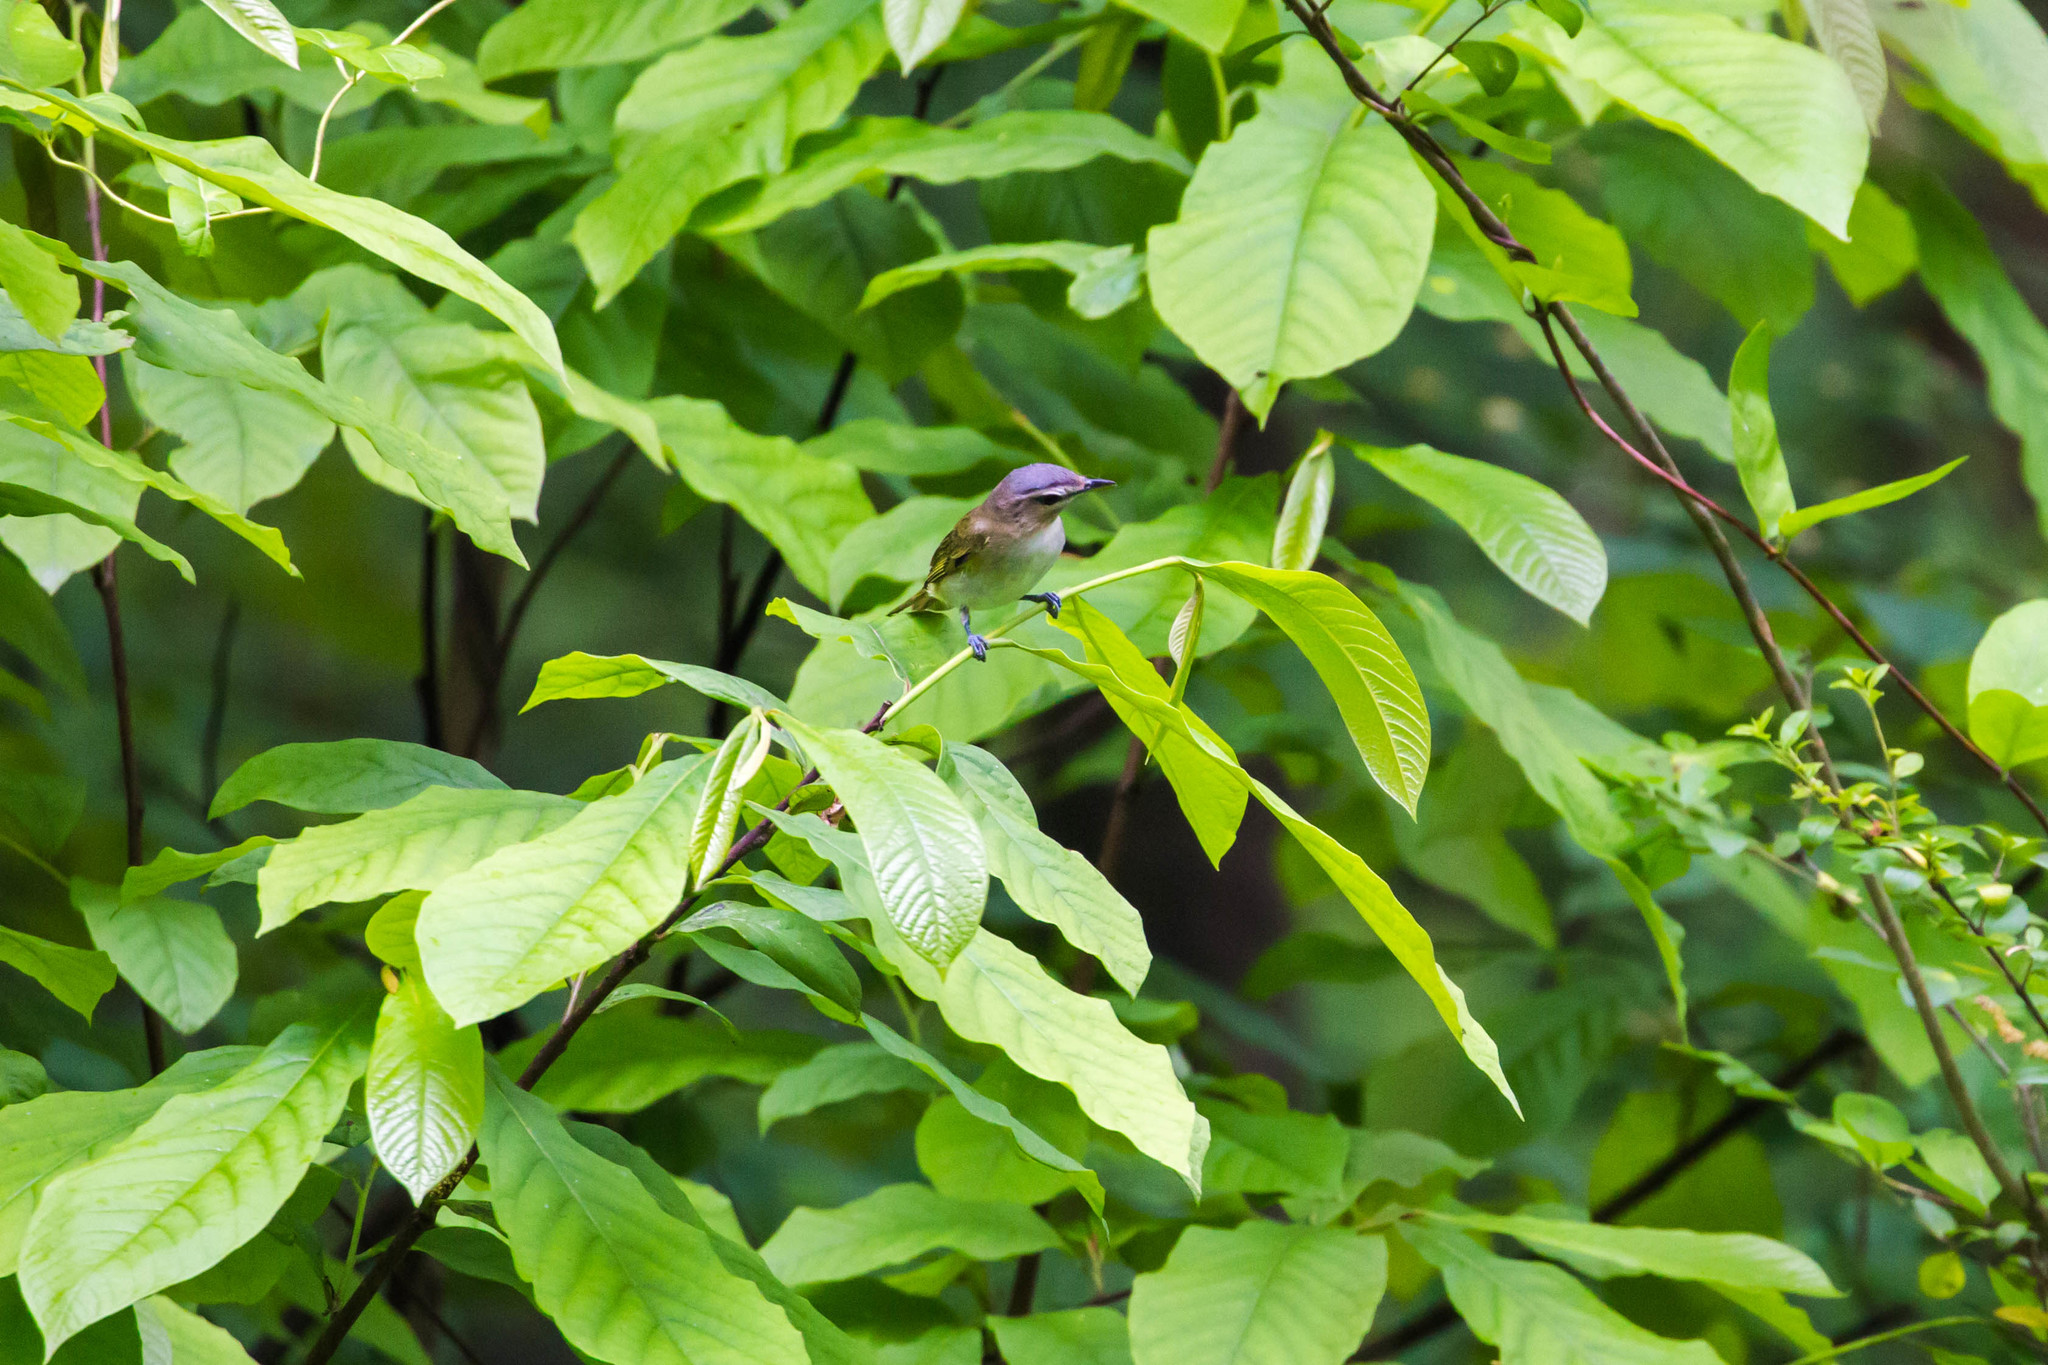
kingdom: Animalia
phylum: Chordata
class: Aves
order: Passeriformes
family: Vireonidae
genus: Vireo
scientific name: Vireo olivaceus
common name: Red-eyed vireo
